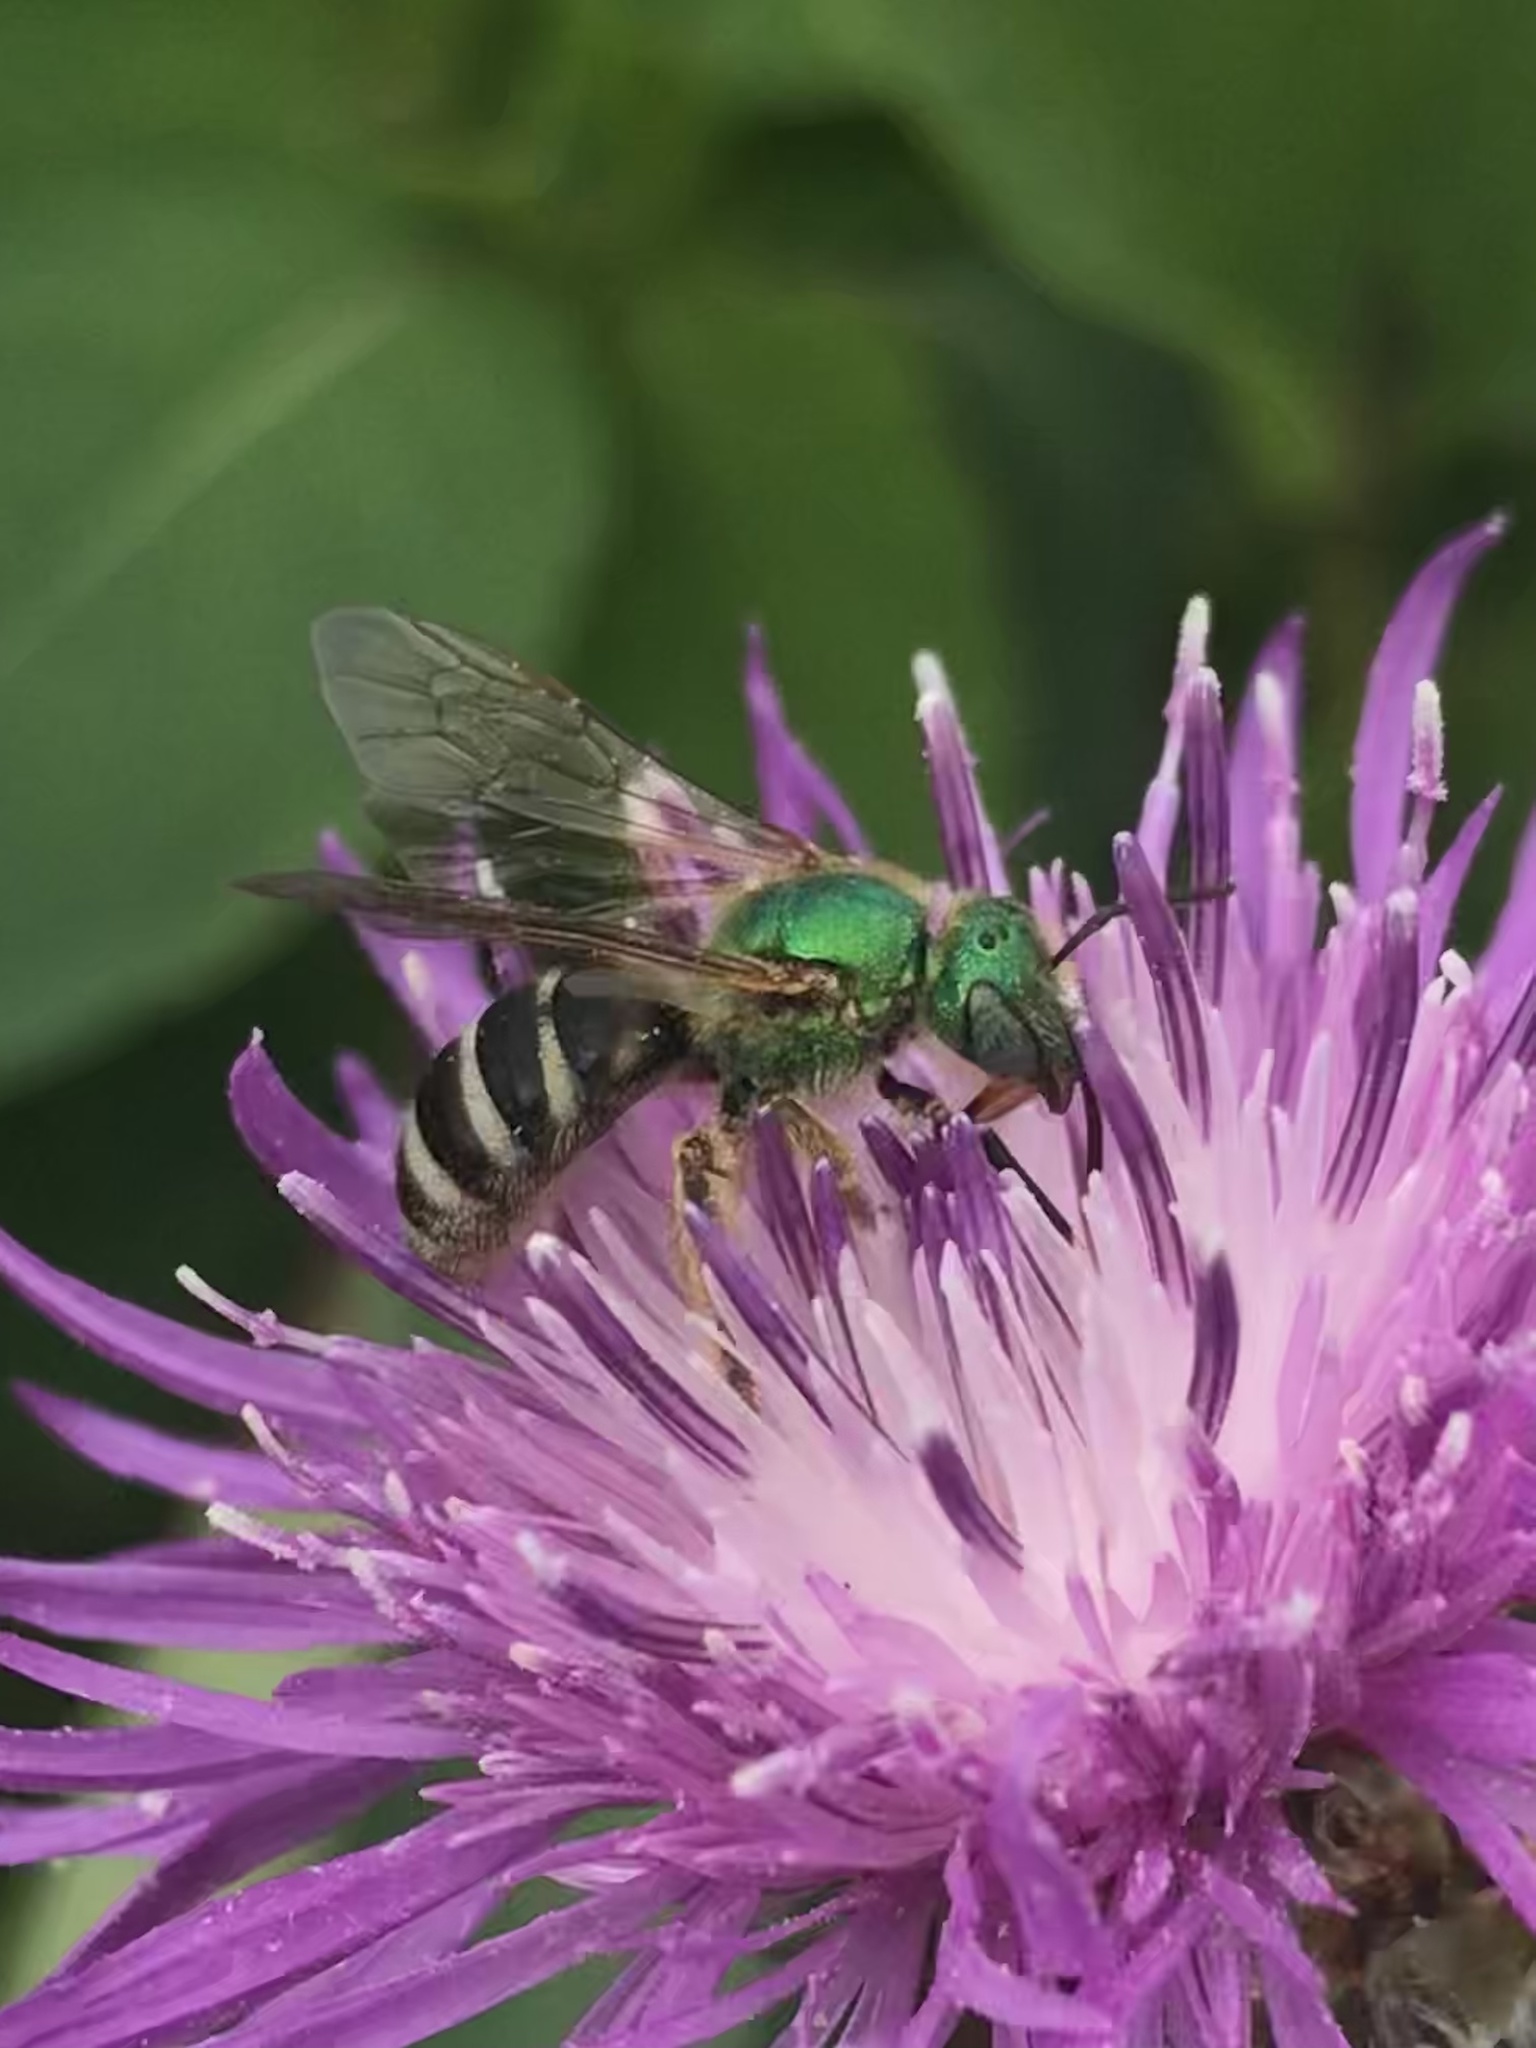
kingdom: Animalia
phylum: Arthropoda
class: Insecta
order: Hymenoptera
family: Halictidae
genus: Agapostemon
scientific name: Agapostemon virescens
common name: Bicolored striped sweat bee
